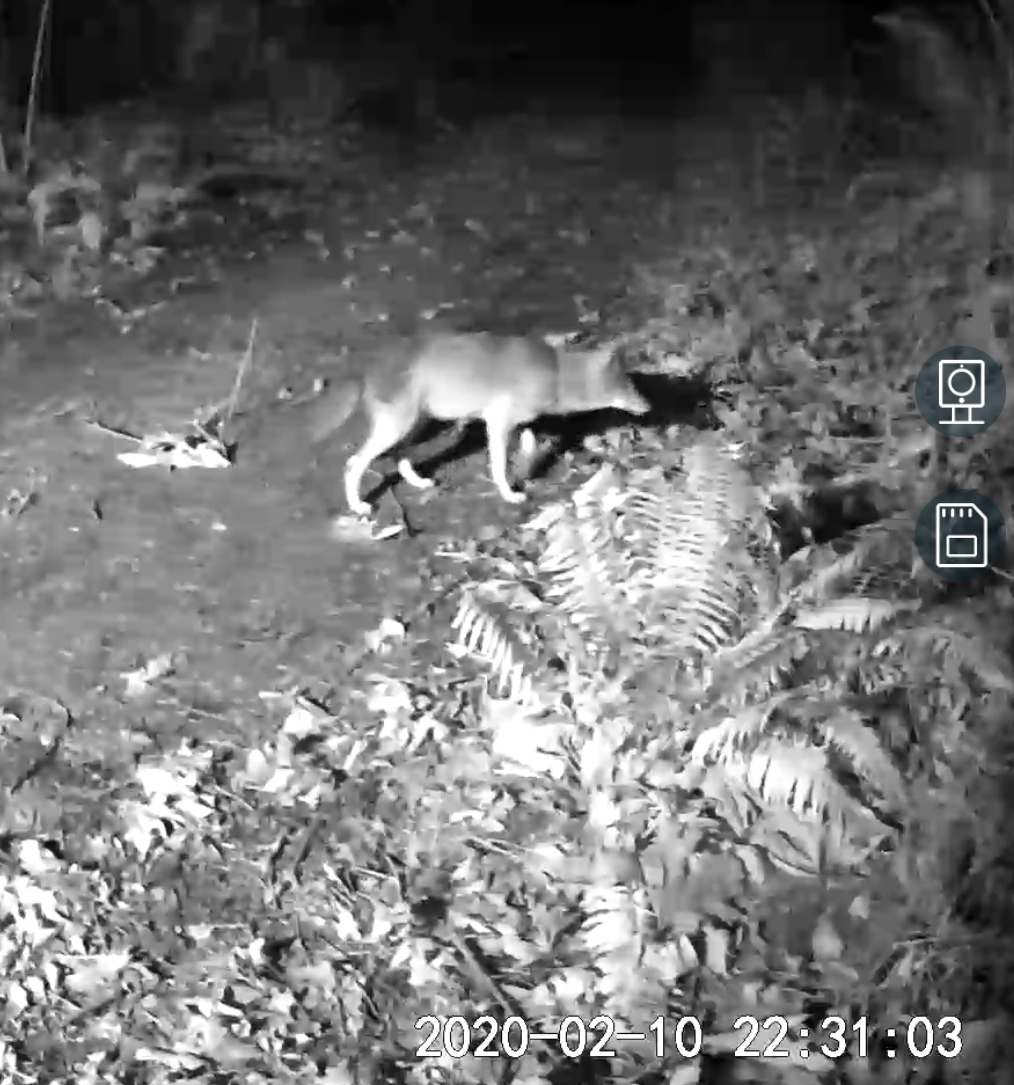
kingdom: Animalia
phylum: Chordata
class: Mammalia
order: Carnivora
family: Canidae
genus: Canis
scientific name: Canis latrans
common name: Coyote
